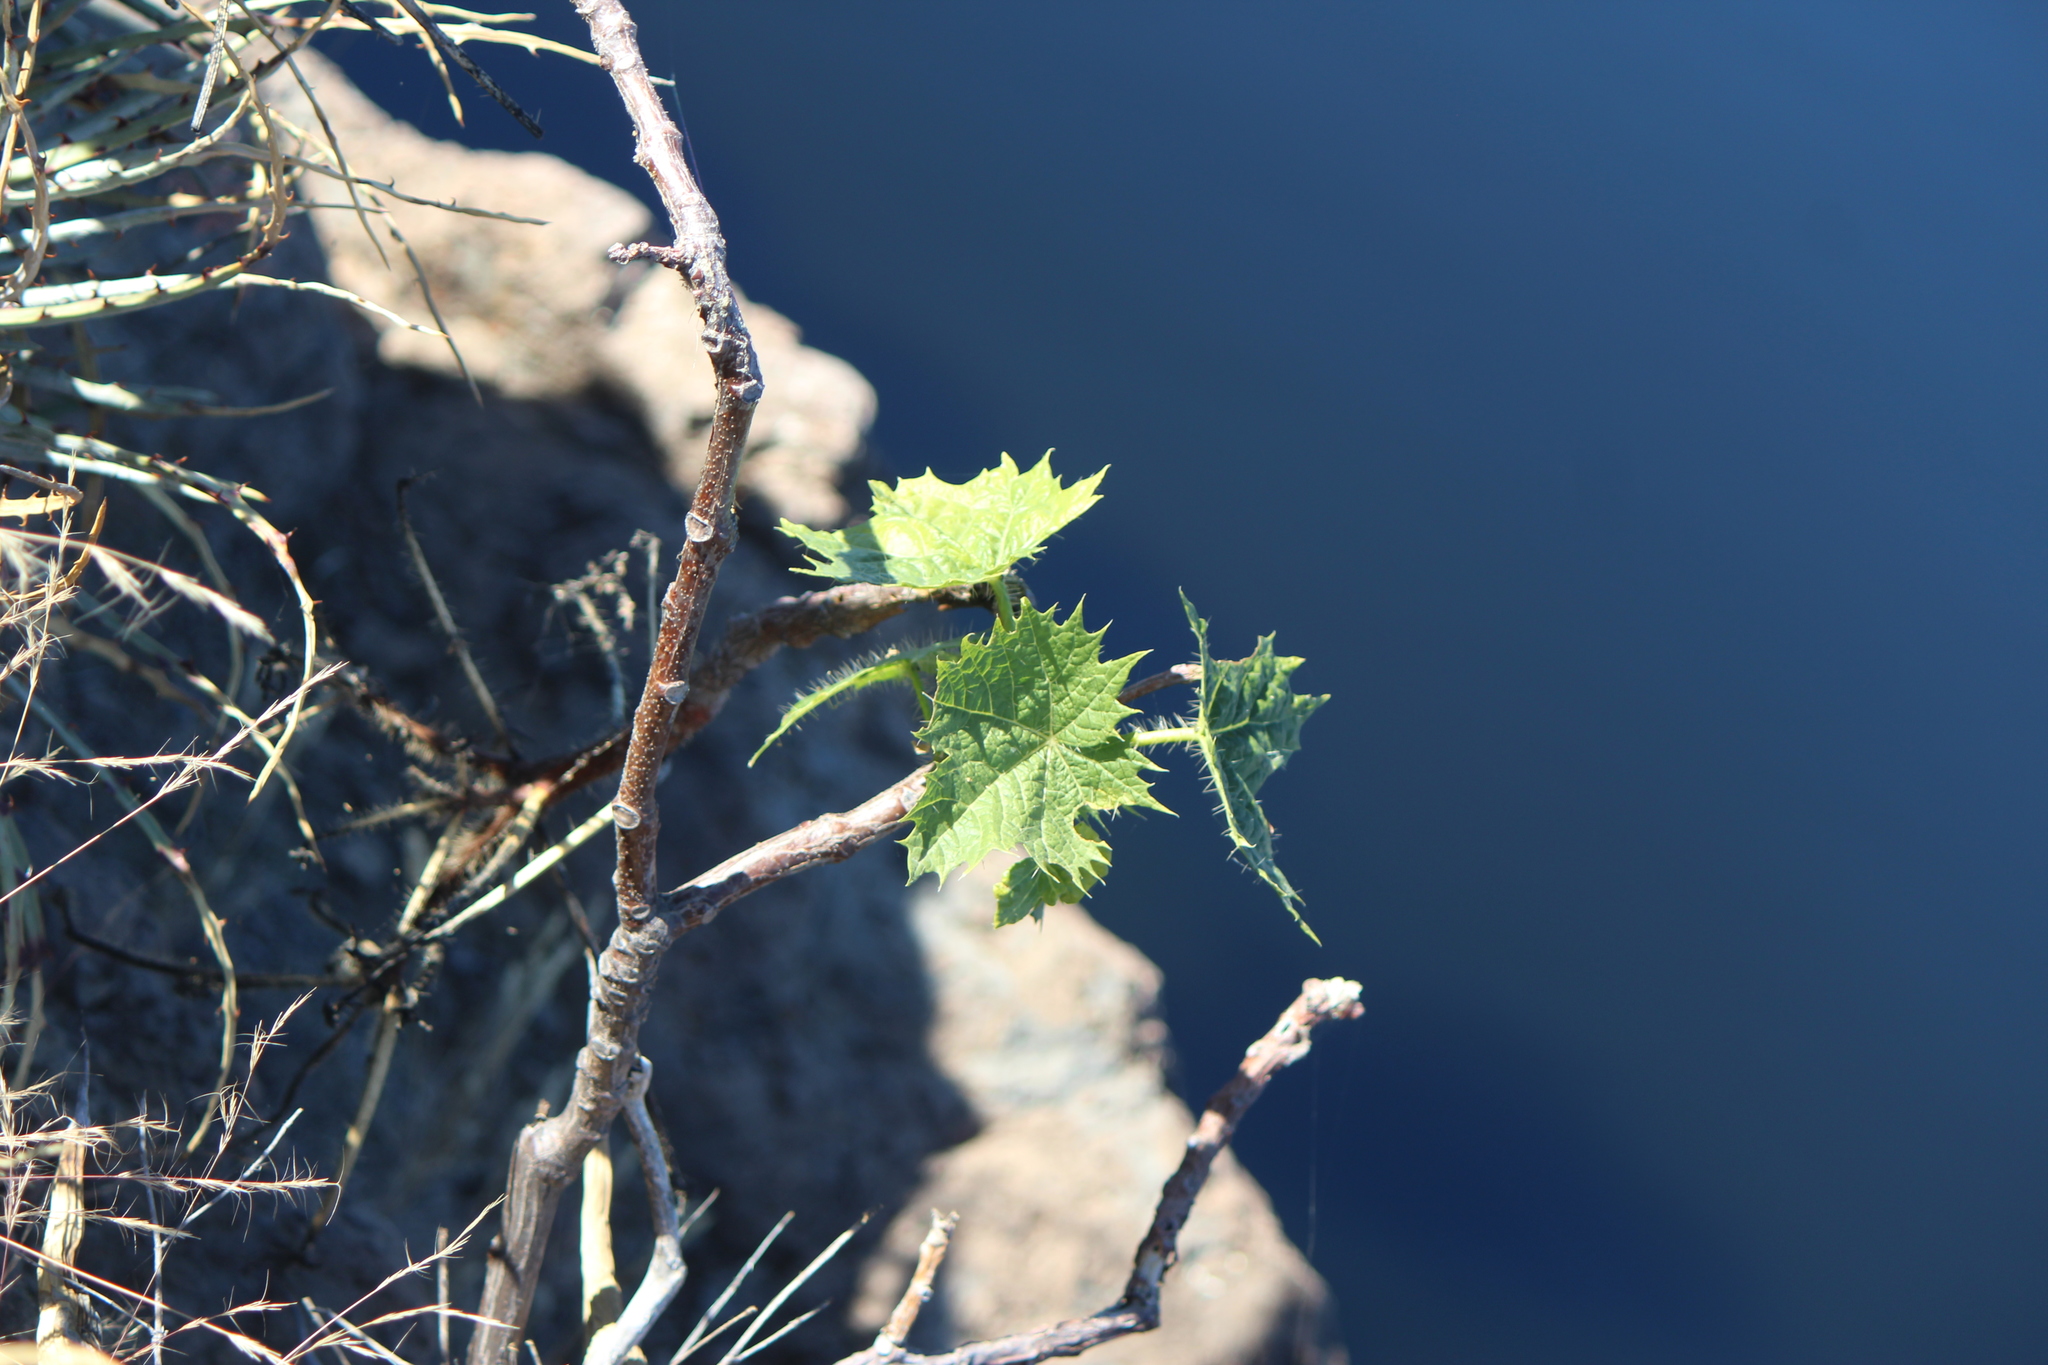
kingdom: Plantae
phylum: Tracheophyta
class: Magnoliopsida
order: Malpighiales
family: Euphorbiaceae
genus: Cnidoscolus
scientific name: Cnidoscolus angustidens
